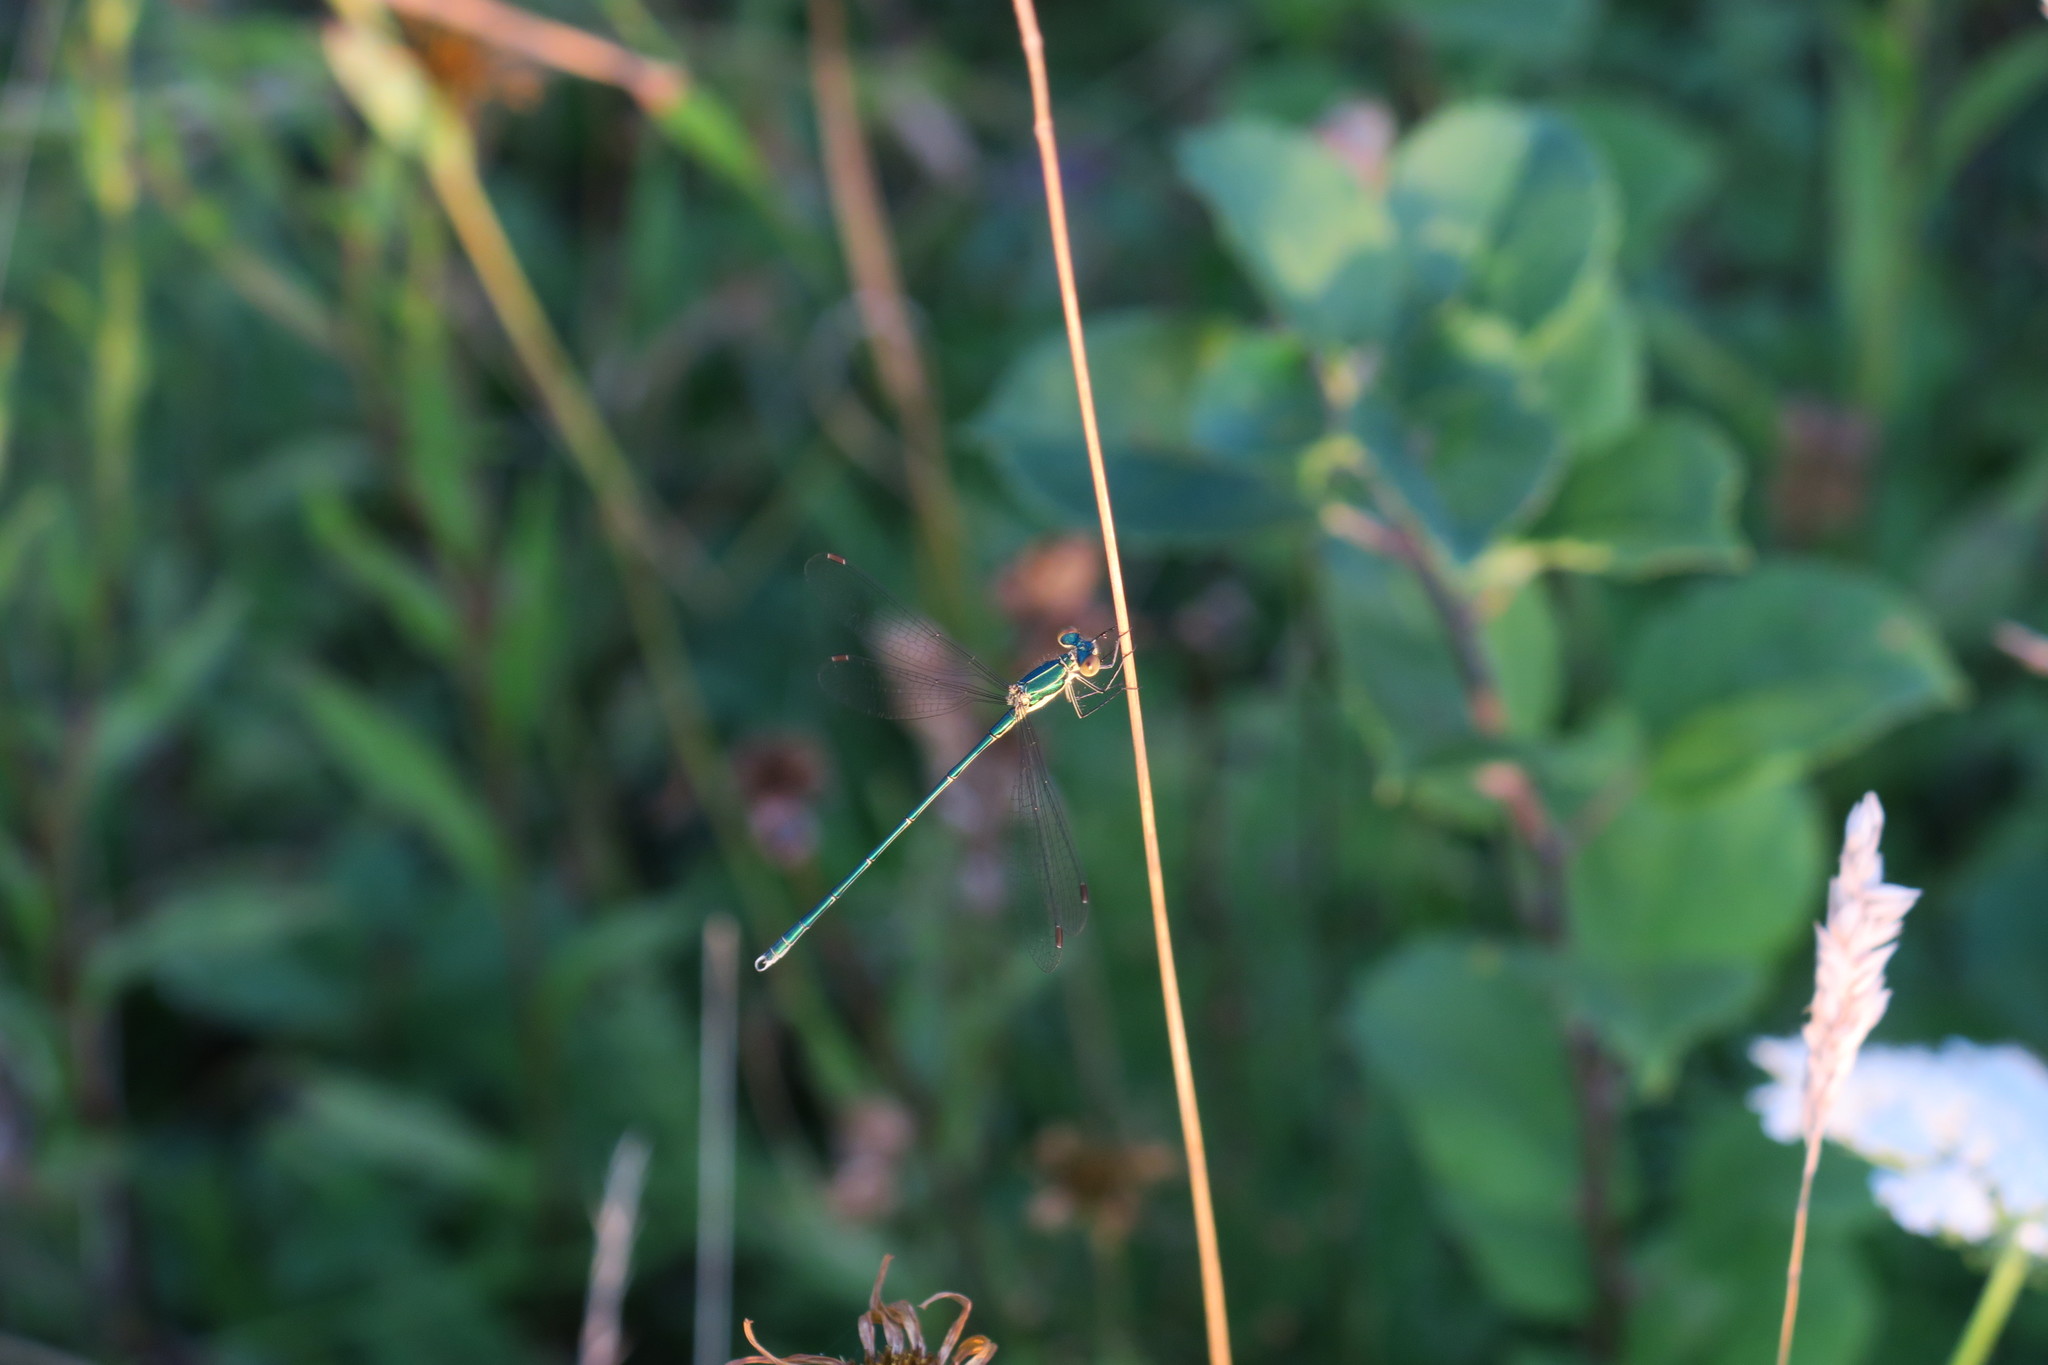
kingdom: Animalia
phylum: Arthropoda
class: Insecta
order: Odonata
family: Lestidae
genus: Lestes
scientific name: Lestes virens
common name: Small emerald spreadwing
